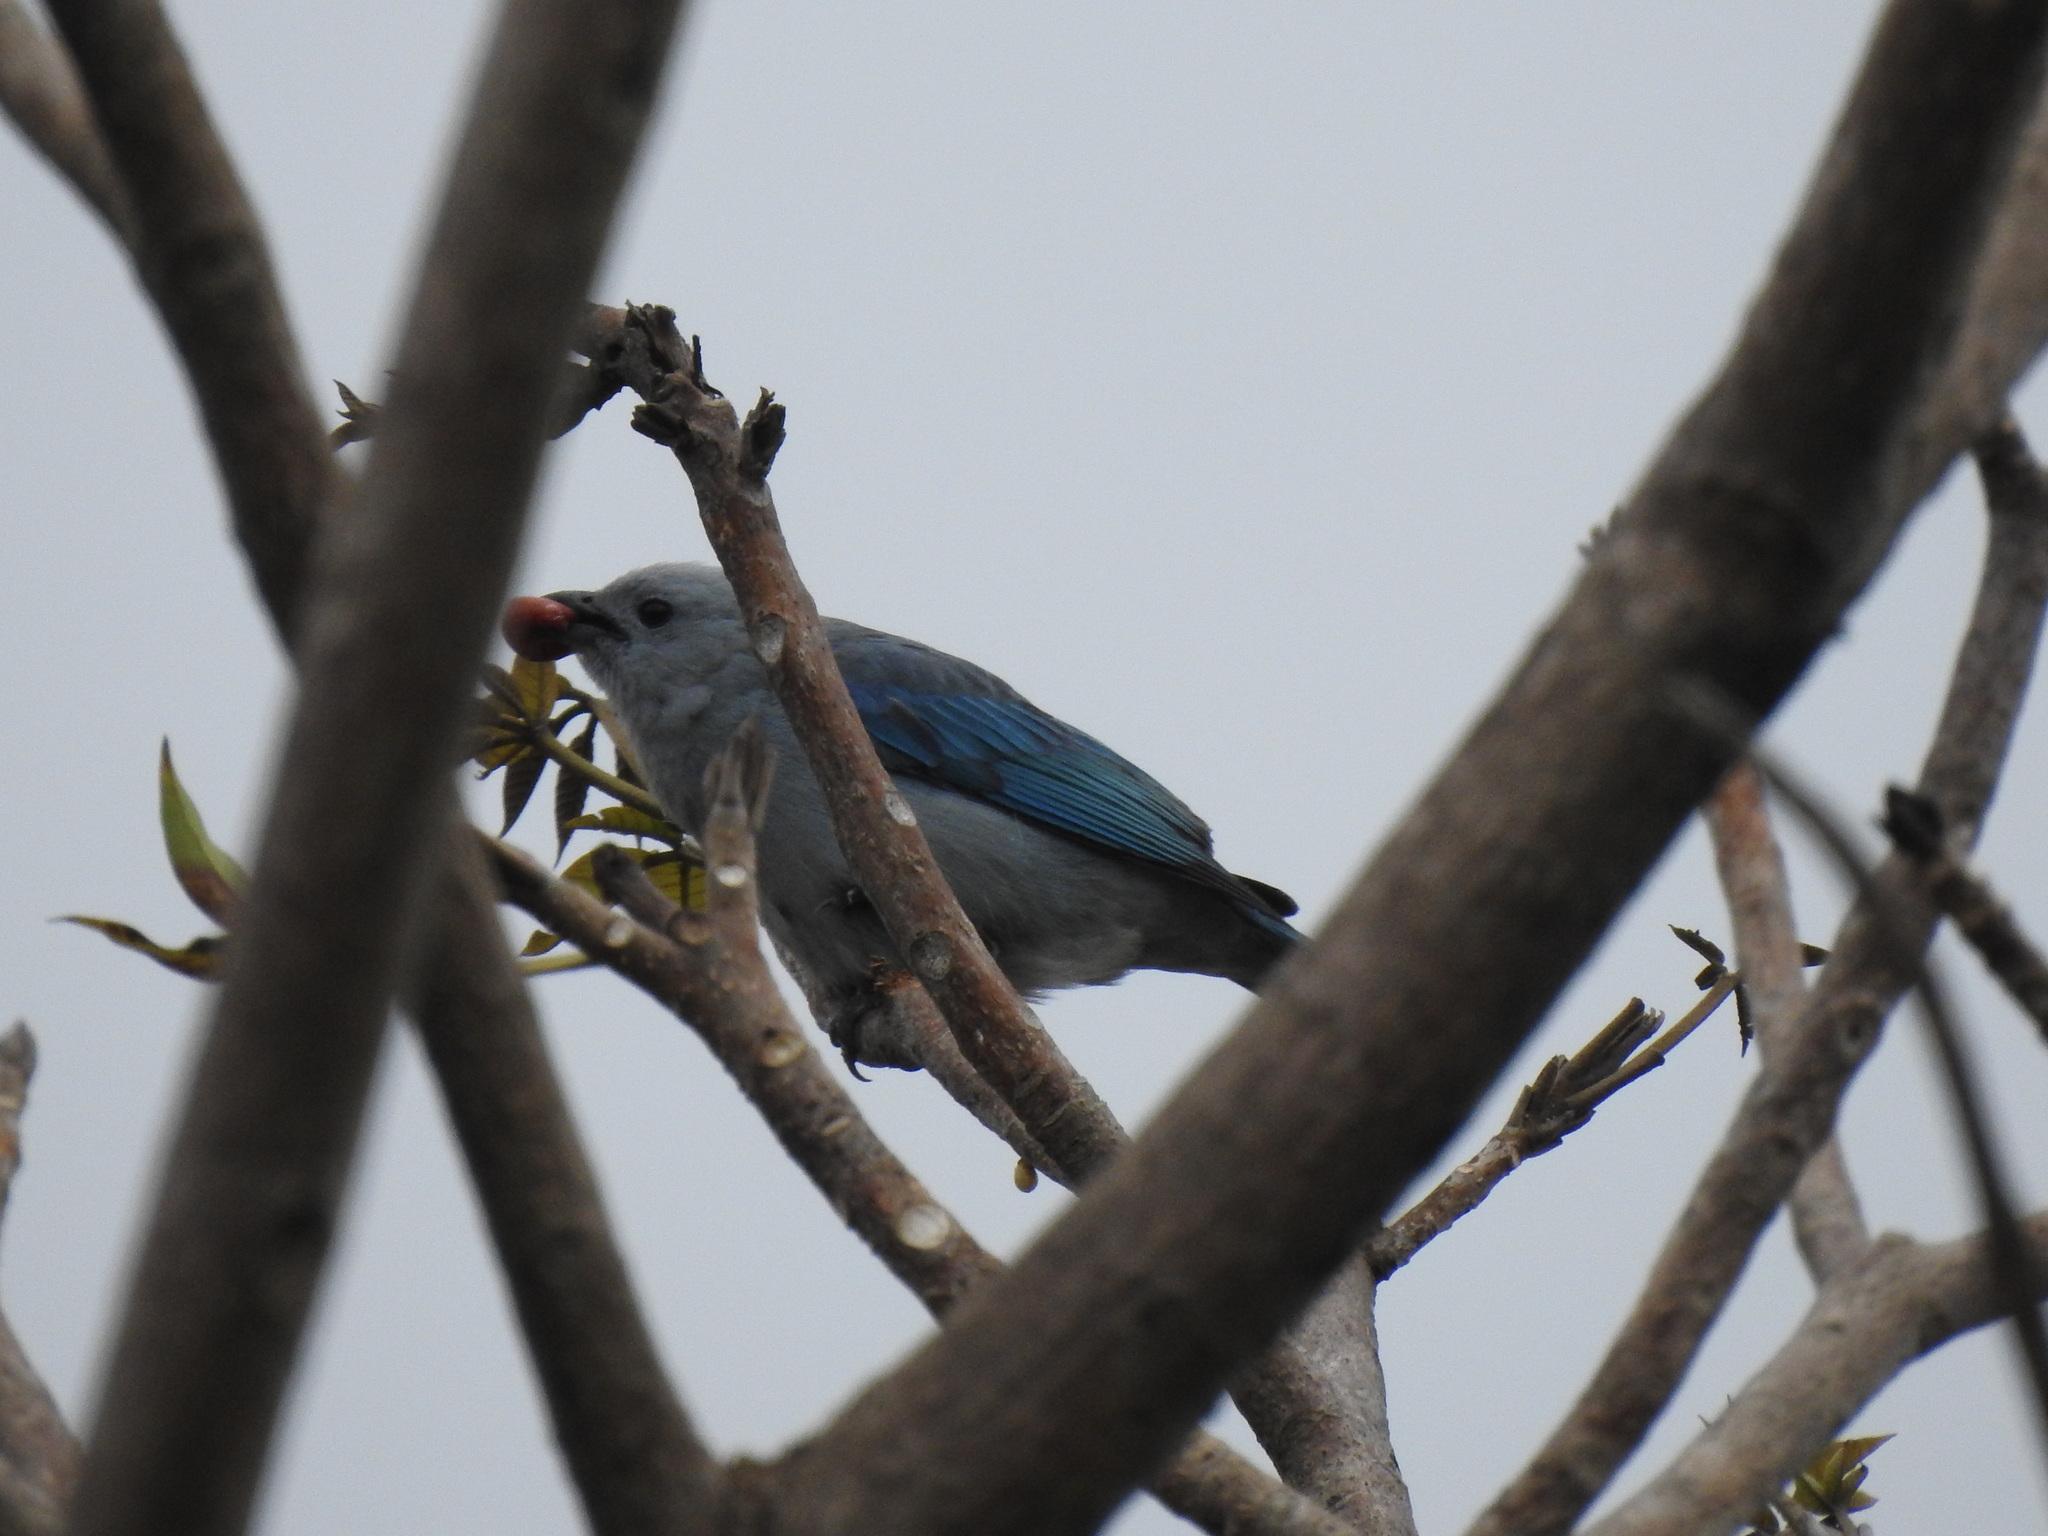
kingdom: Animalia
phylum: Chordata
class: Aves
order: Passeriformes
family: Thraupidae
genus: Thraupis
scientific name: Thraupis episcopus
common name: Blue-grey tanager
